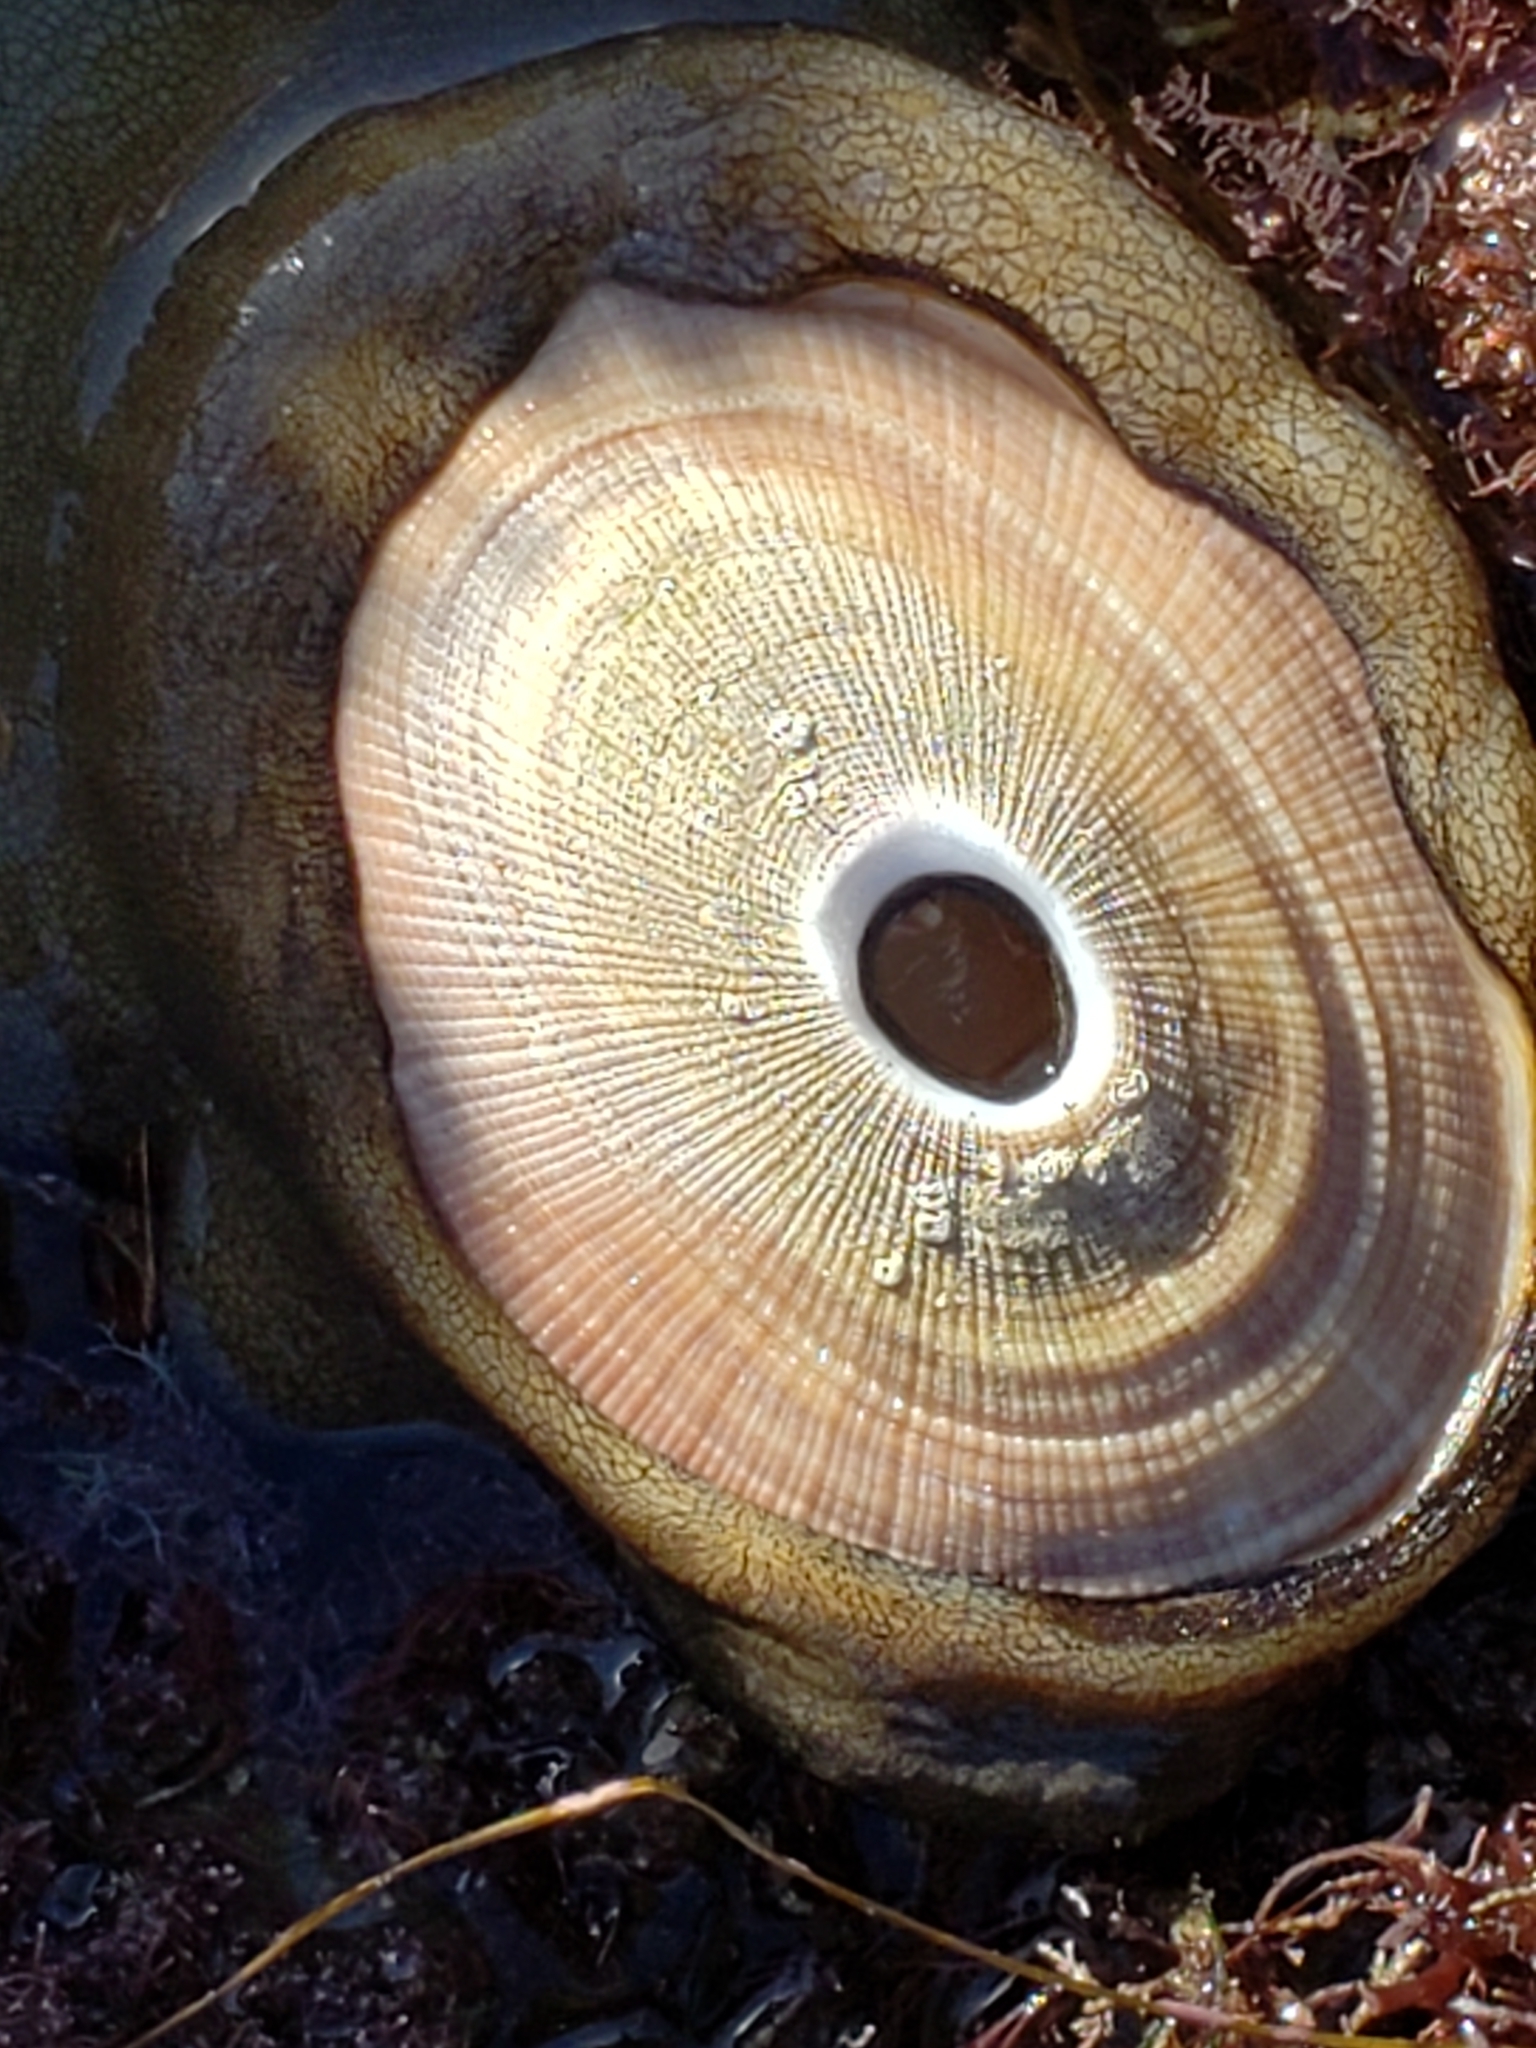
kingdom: Animalia
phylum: Mollusca
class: Gastropoda
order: Lepetellida
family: Fissurellidae
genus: Megathura
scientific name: Megathura crenulata
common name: Giant keyhole limpet
